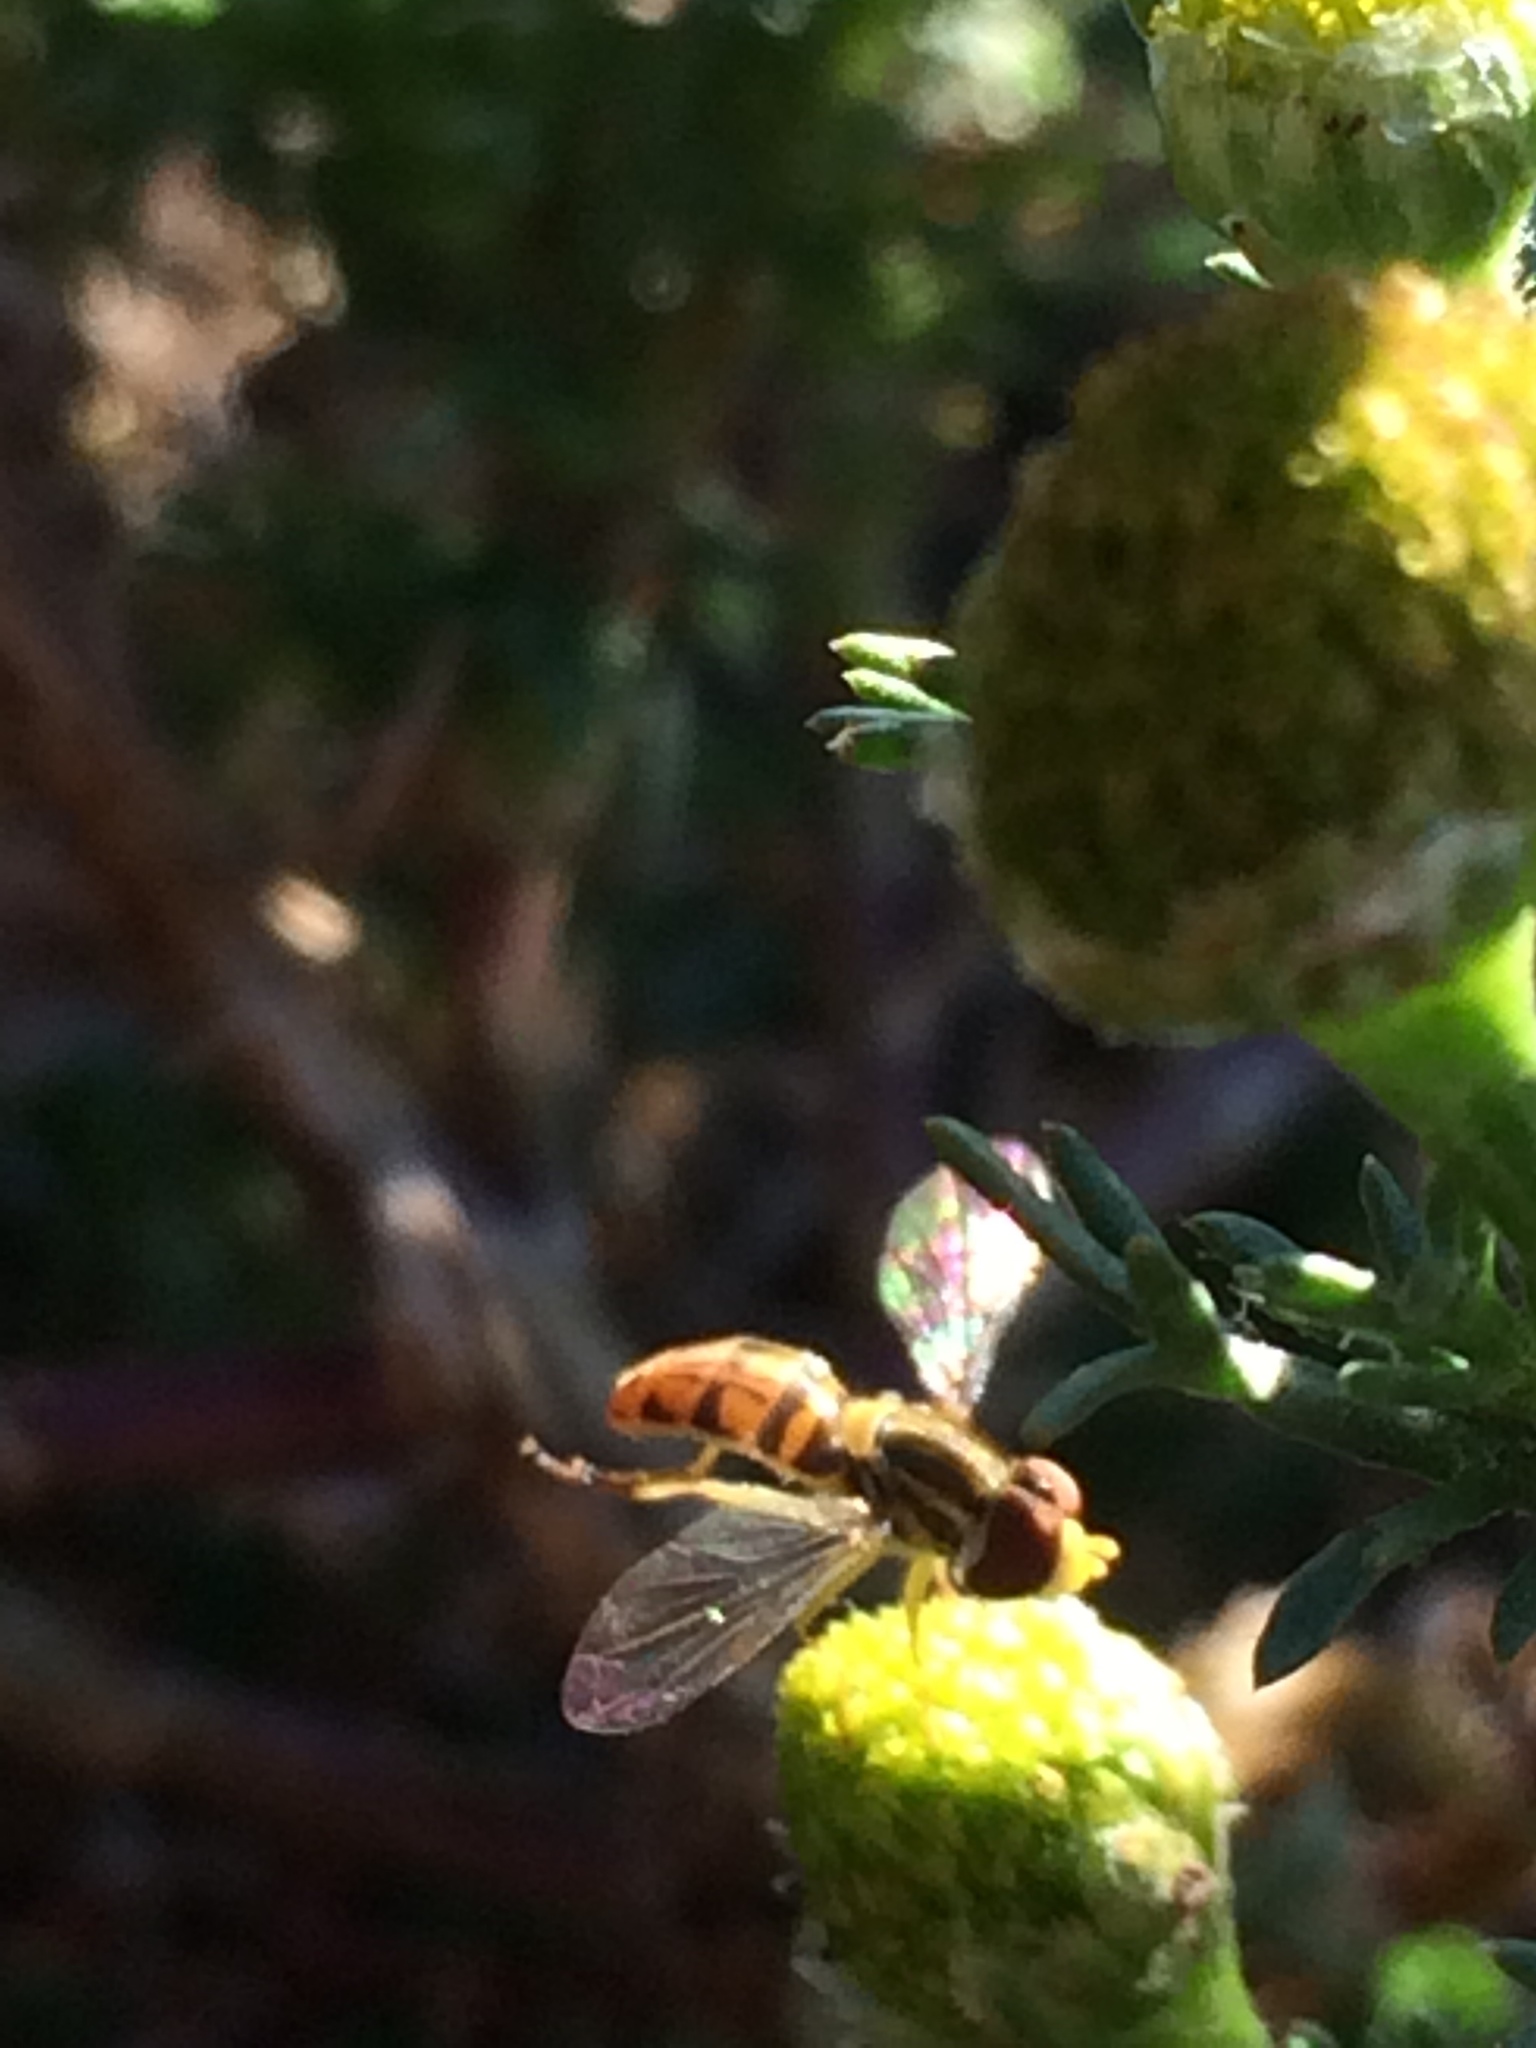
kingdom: Animalia
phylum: Arthropoda
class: Insecta
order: Diptera
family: Syrphidae
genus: Toxomerus
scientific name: Toxomerus marginatus
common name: Syrphid fly
